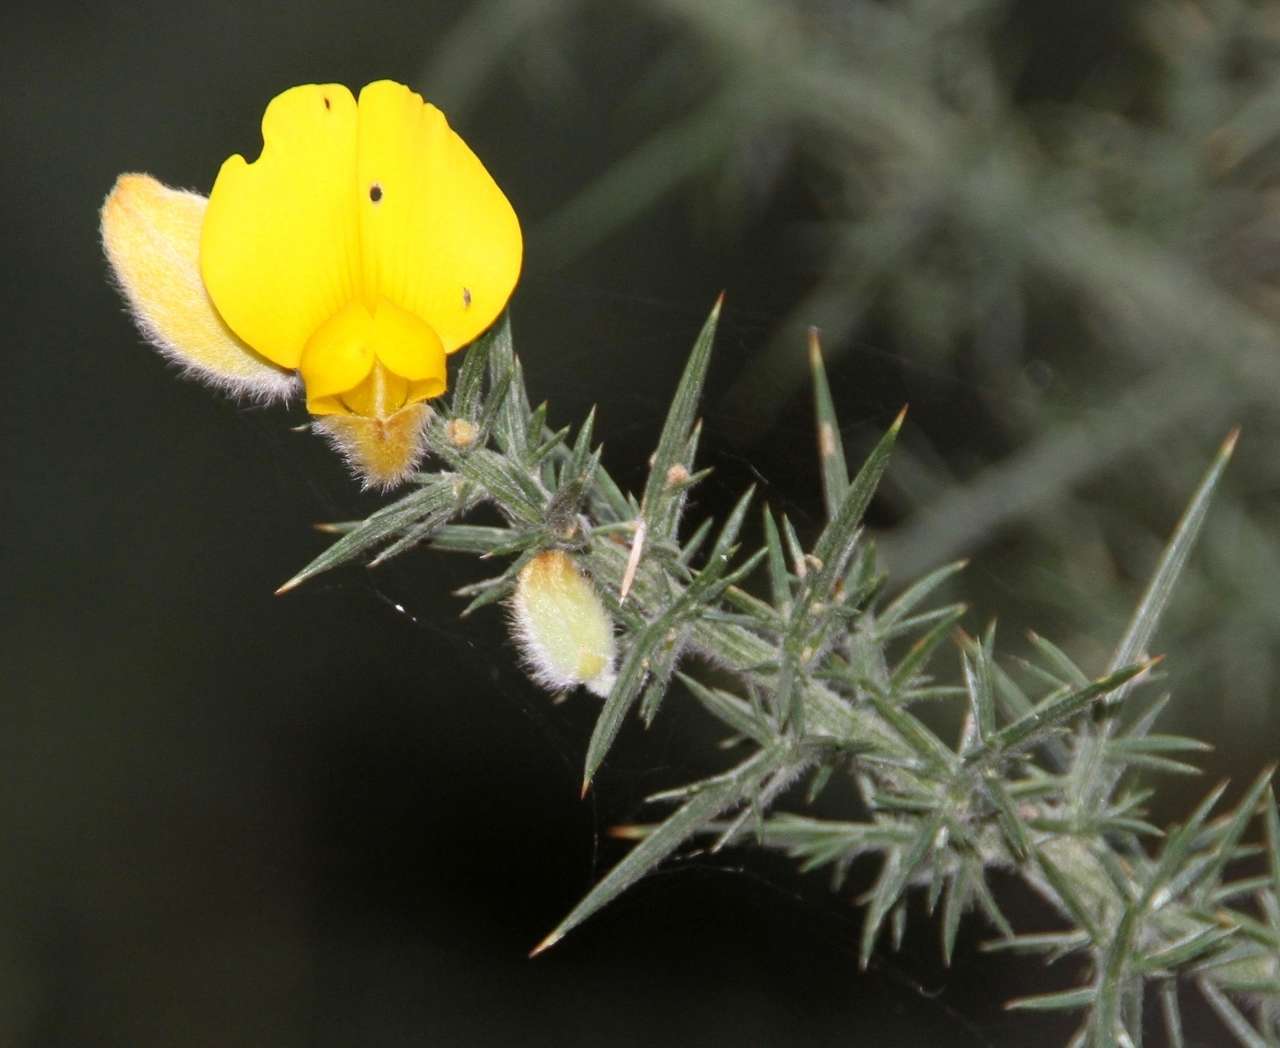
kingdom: Plantae
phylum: Tracheophyta
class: Magnoliopsida
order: Fabales
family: Fabaceae
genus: Ulex
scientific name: Ulex europaeus
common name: Common gorse
